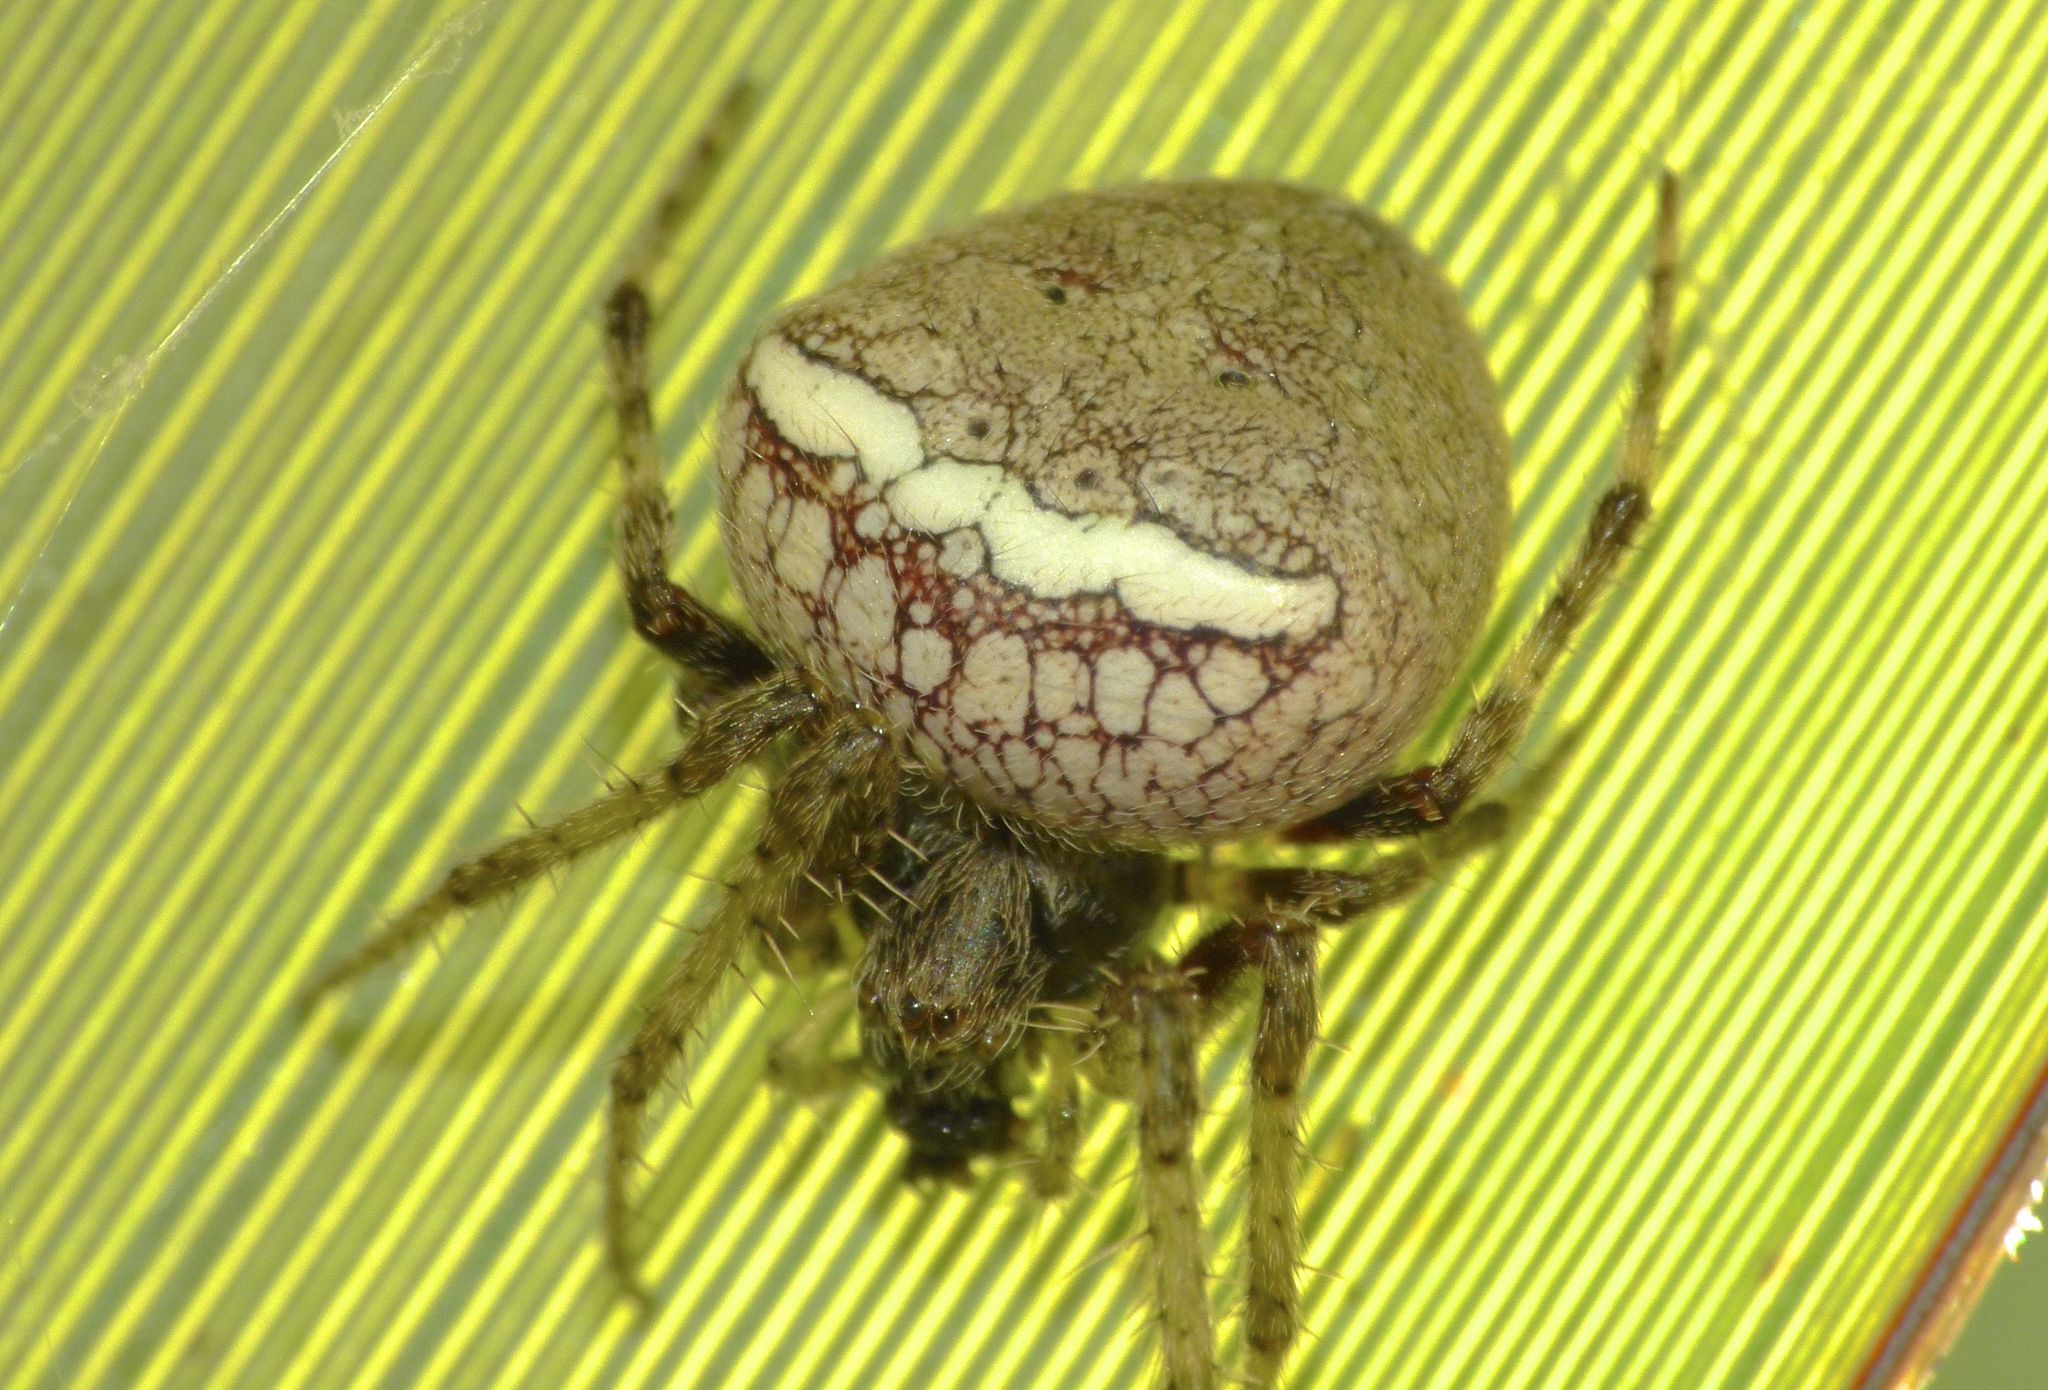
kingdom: Animalia
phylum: Arthropoda
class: Arachnida
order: Araneae
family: Araneidae
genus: Zealaranea
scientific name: Zealaranea crassa
